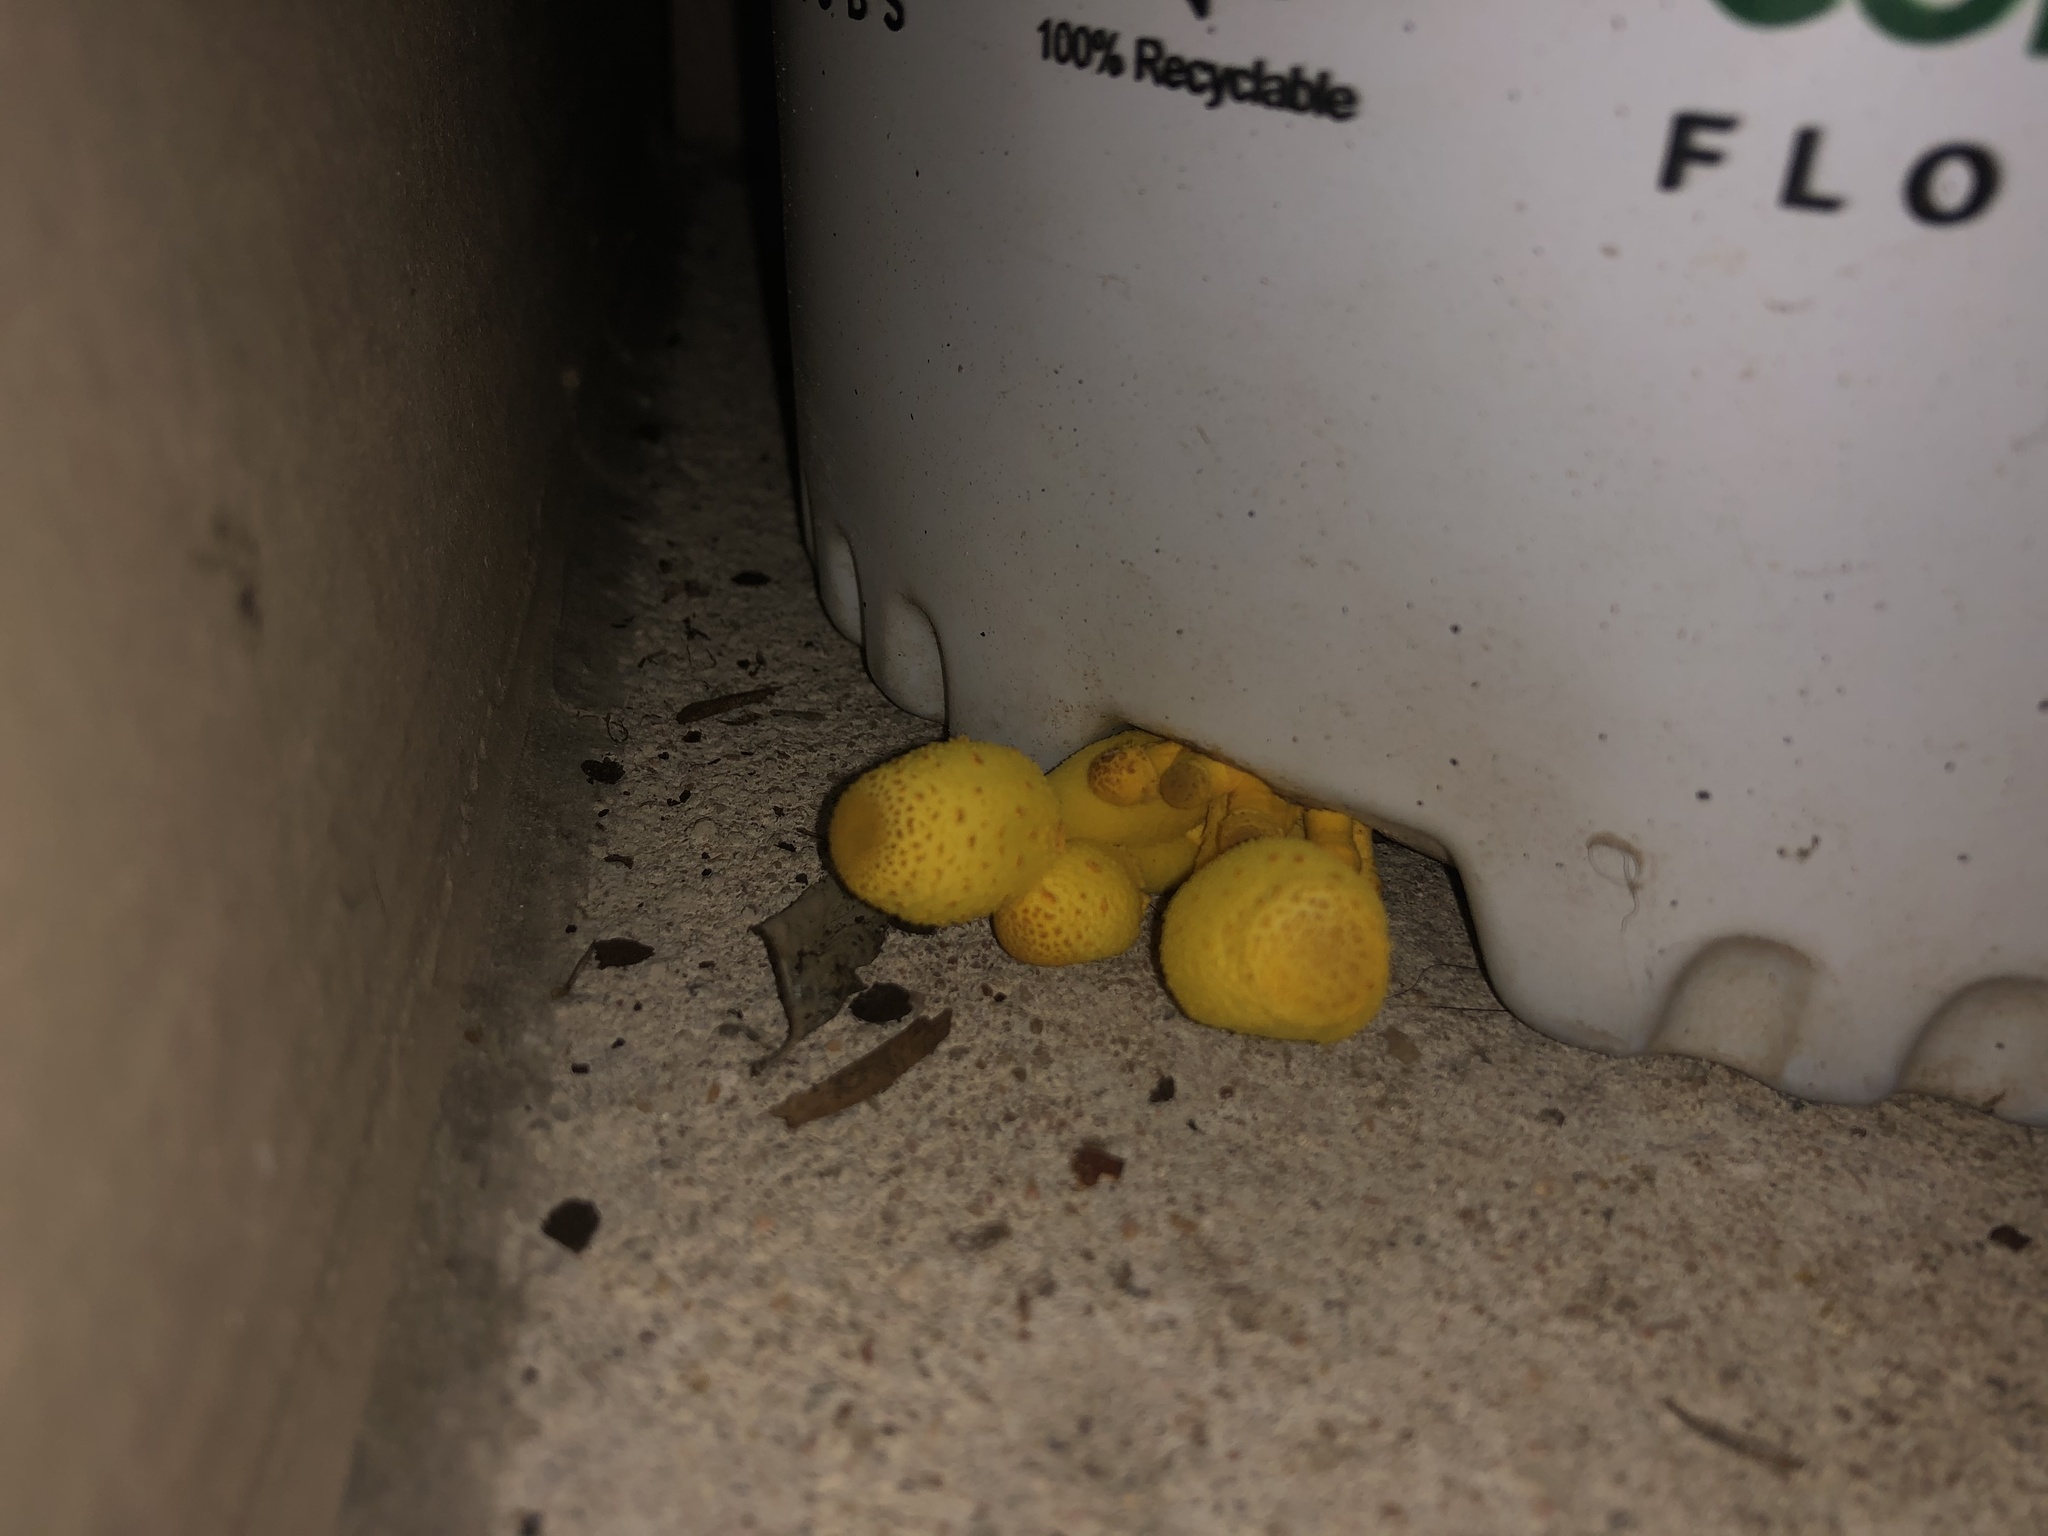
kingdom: Fungi
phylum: Basidiomycota
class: Agaricomycetes
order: Agaricales
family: Agaricaceae
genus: Leucocoprinus
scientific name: Leucocoprinus birnbaumii
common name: Plantpot dapperling
